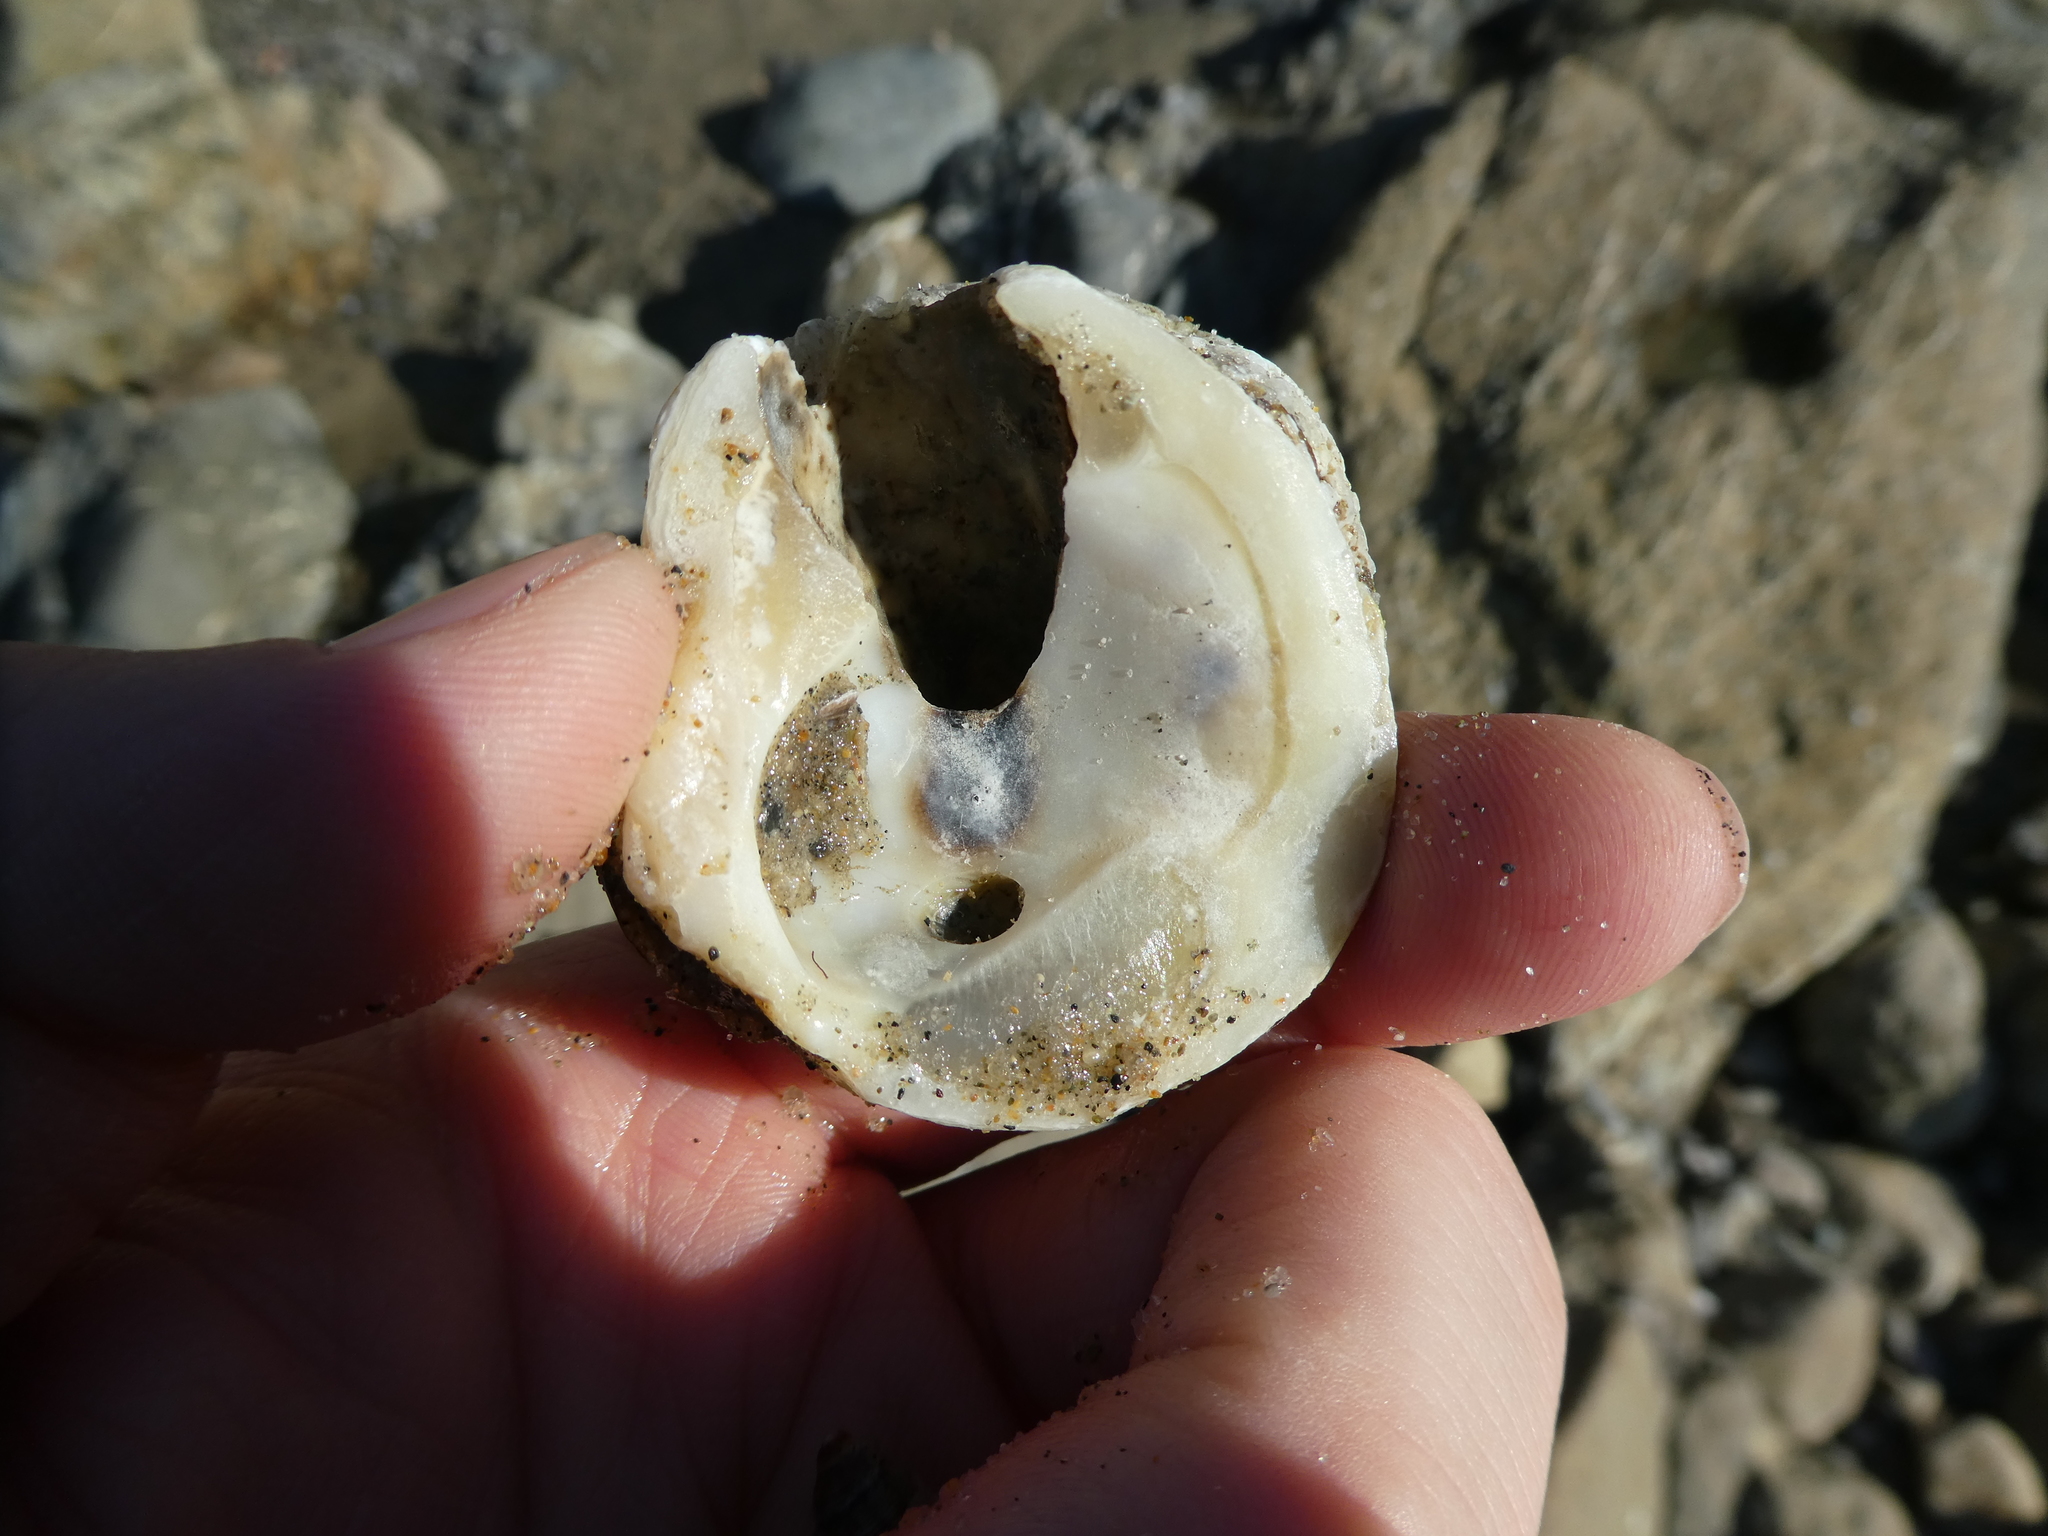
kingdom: Animalia
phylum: Mollusca
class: Bivalvia
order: Venerida
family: Chamidae
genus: Pseudochama
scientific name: Pseudochama exogyra
